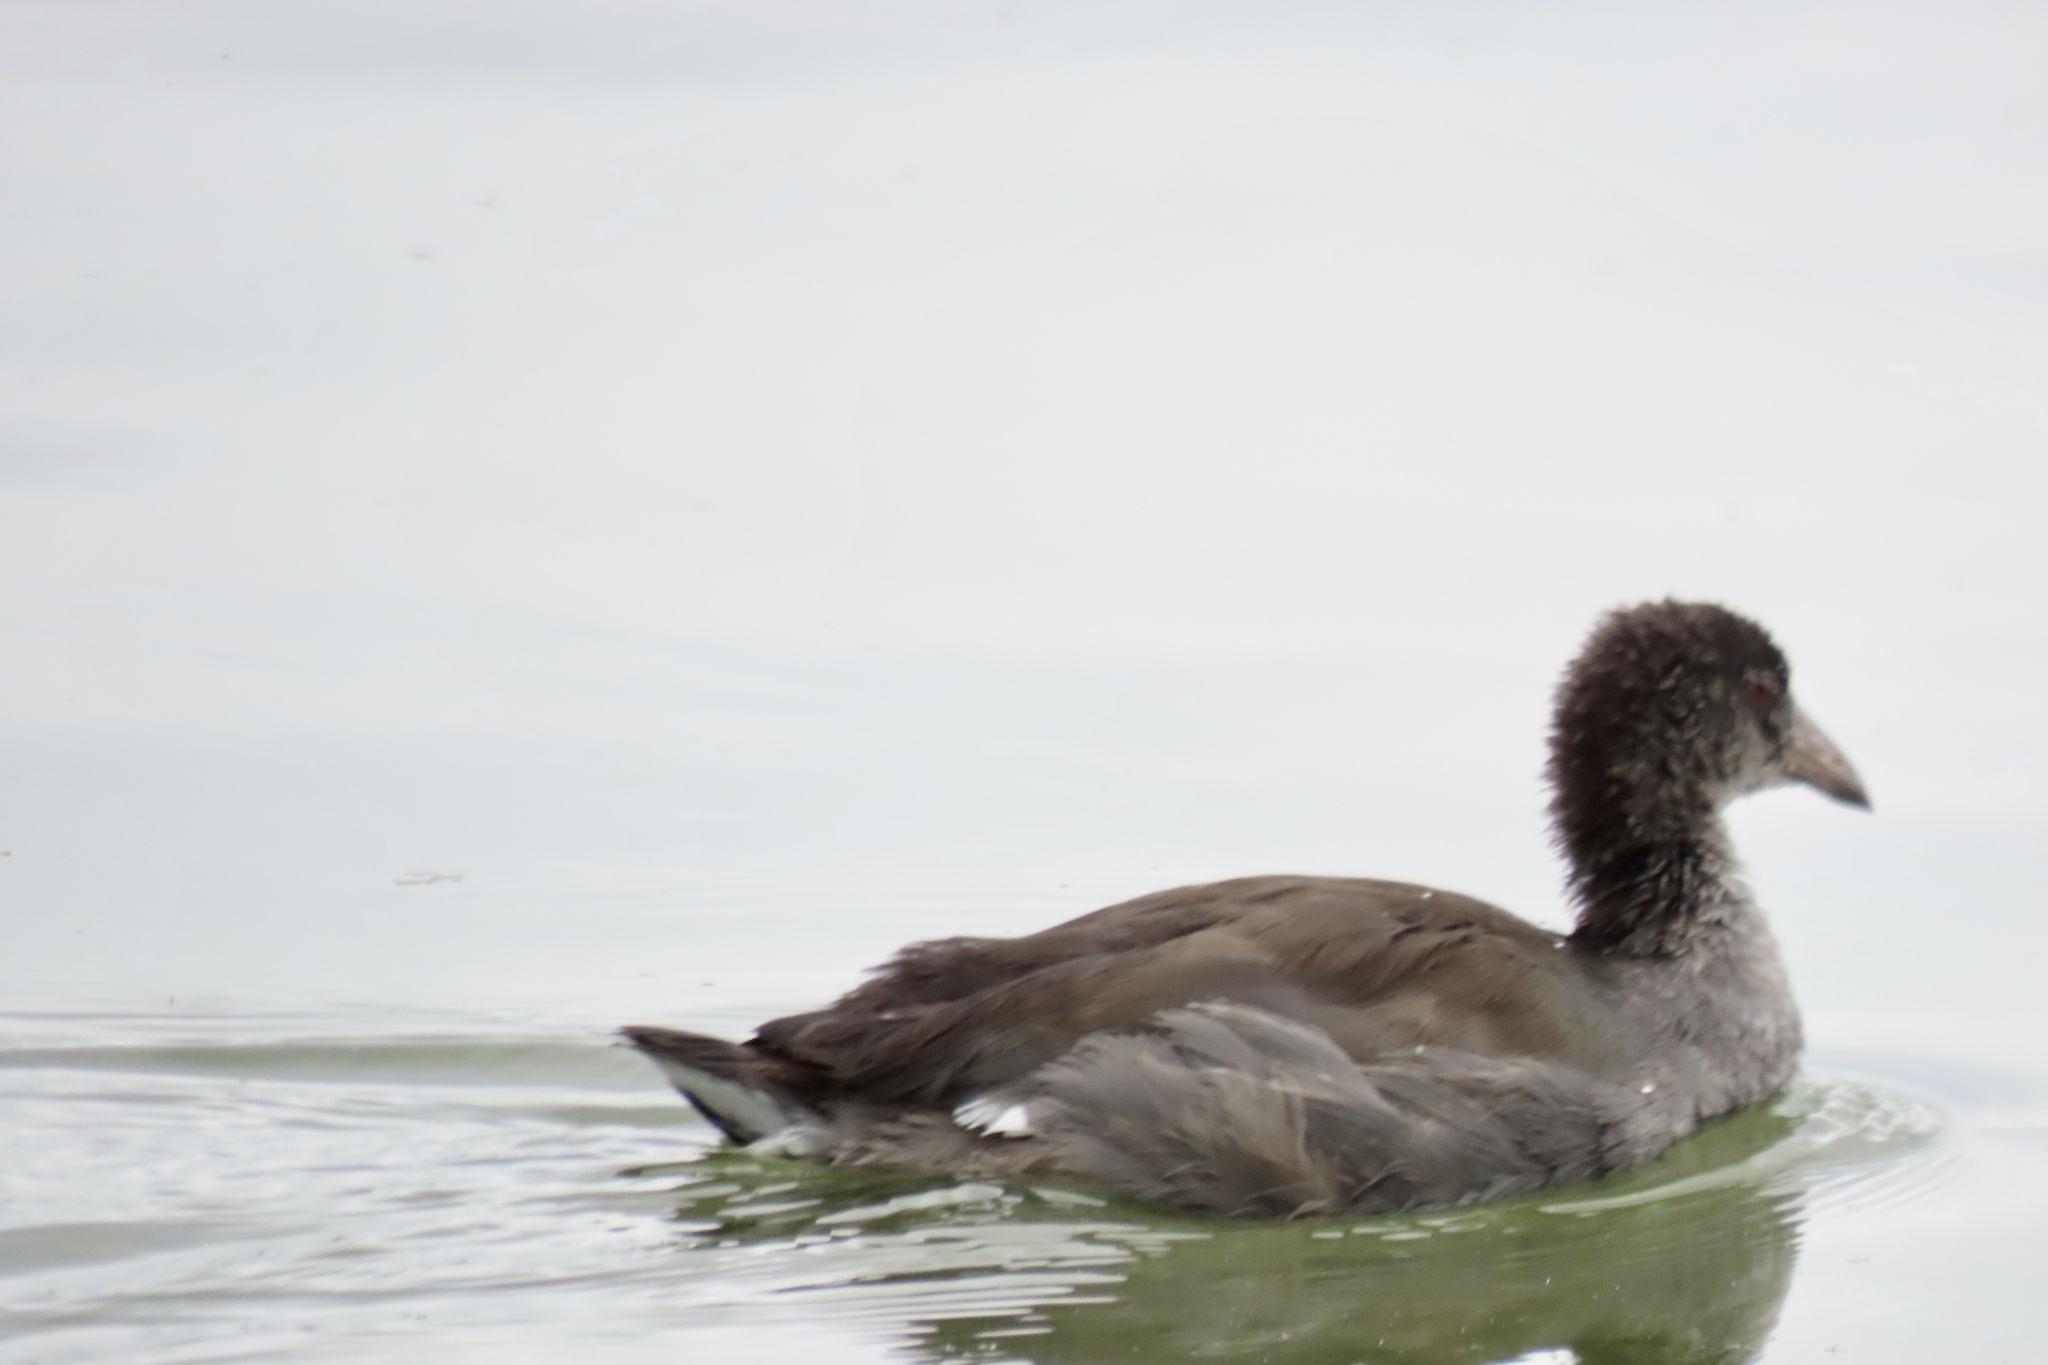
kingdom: Animalia
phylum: Chordata
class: Aves
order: Gruiformes
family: Rallidae
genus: Fulica
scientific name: Fulica americana
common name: American coot
